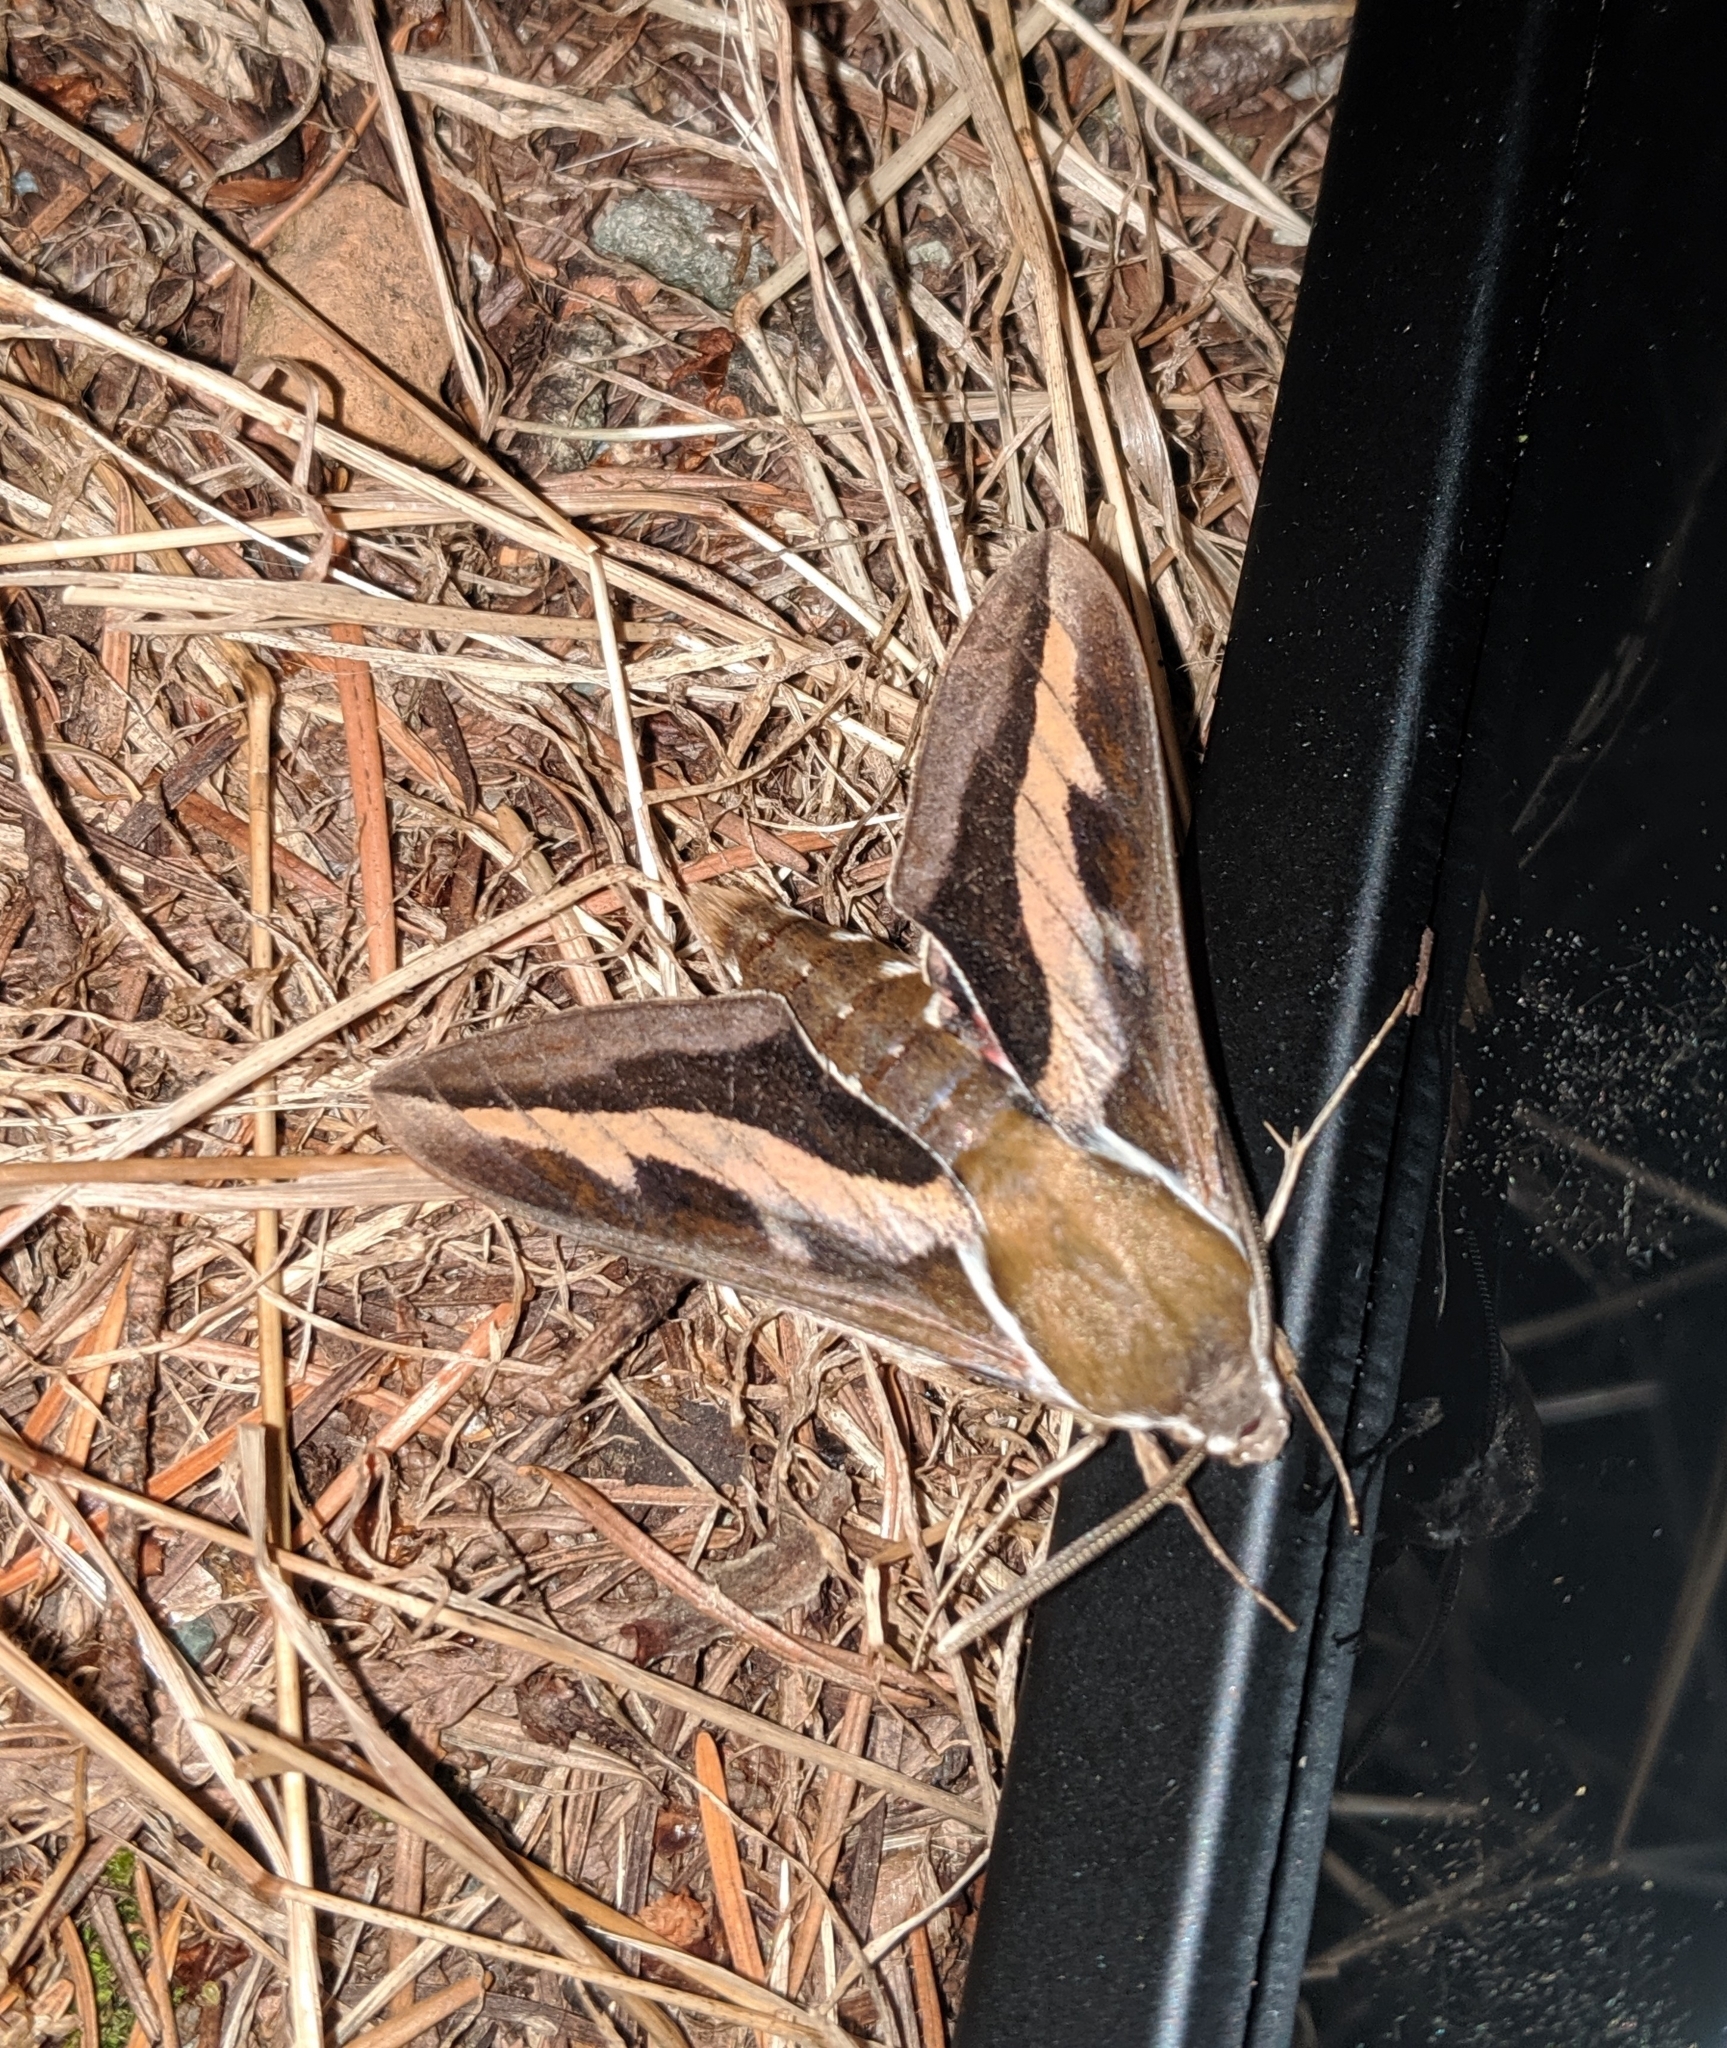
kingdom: Animalia
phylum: Arthropoda
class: Insecta
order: Lepidoptera
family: Sphingidae
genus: Hyles
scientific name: Hyles gallii
